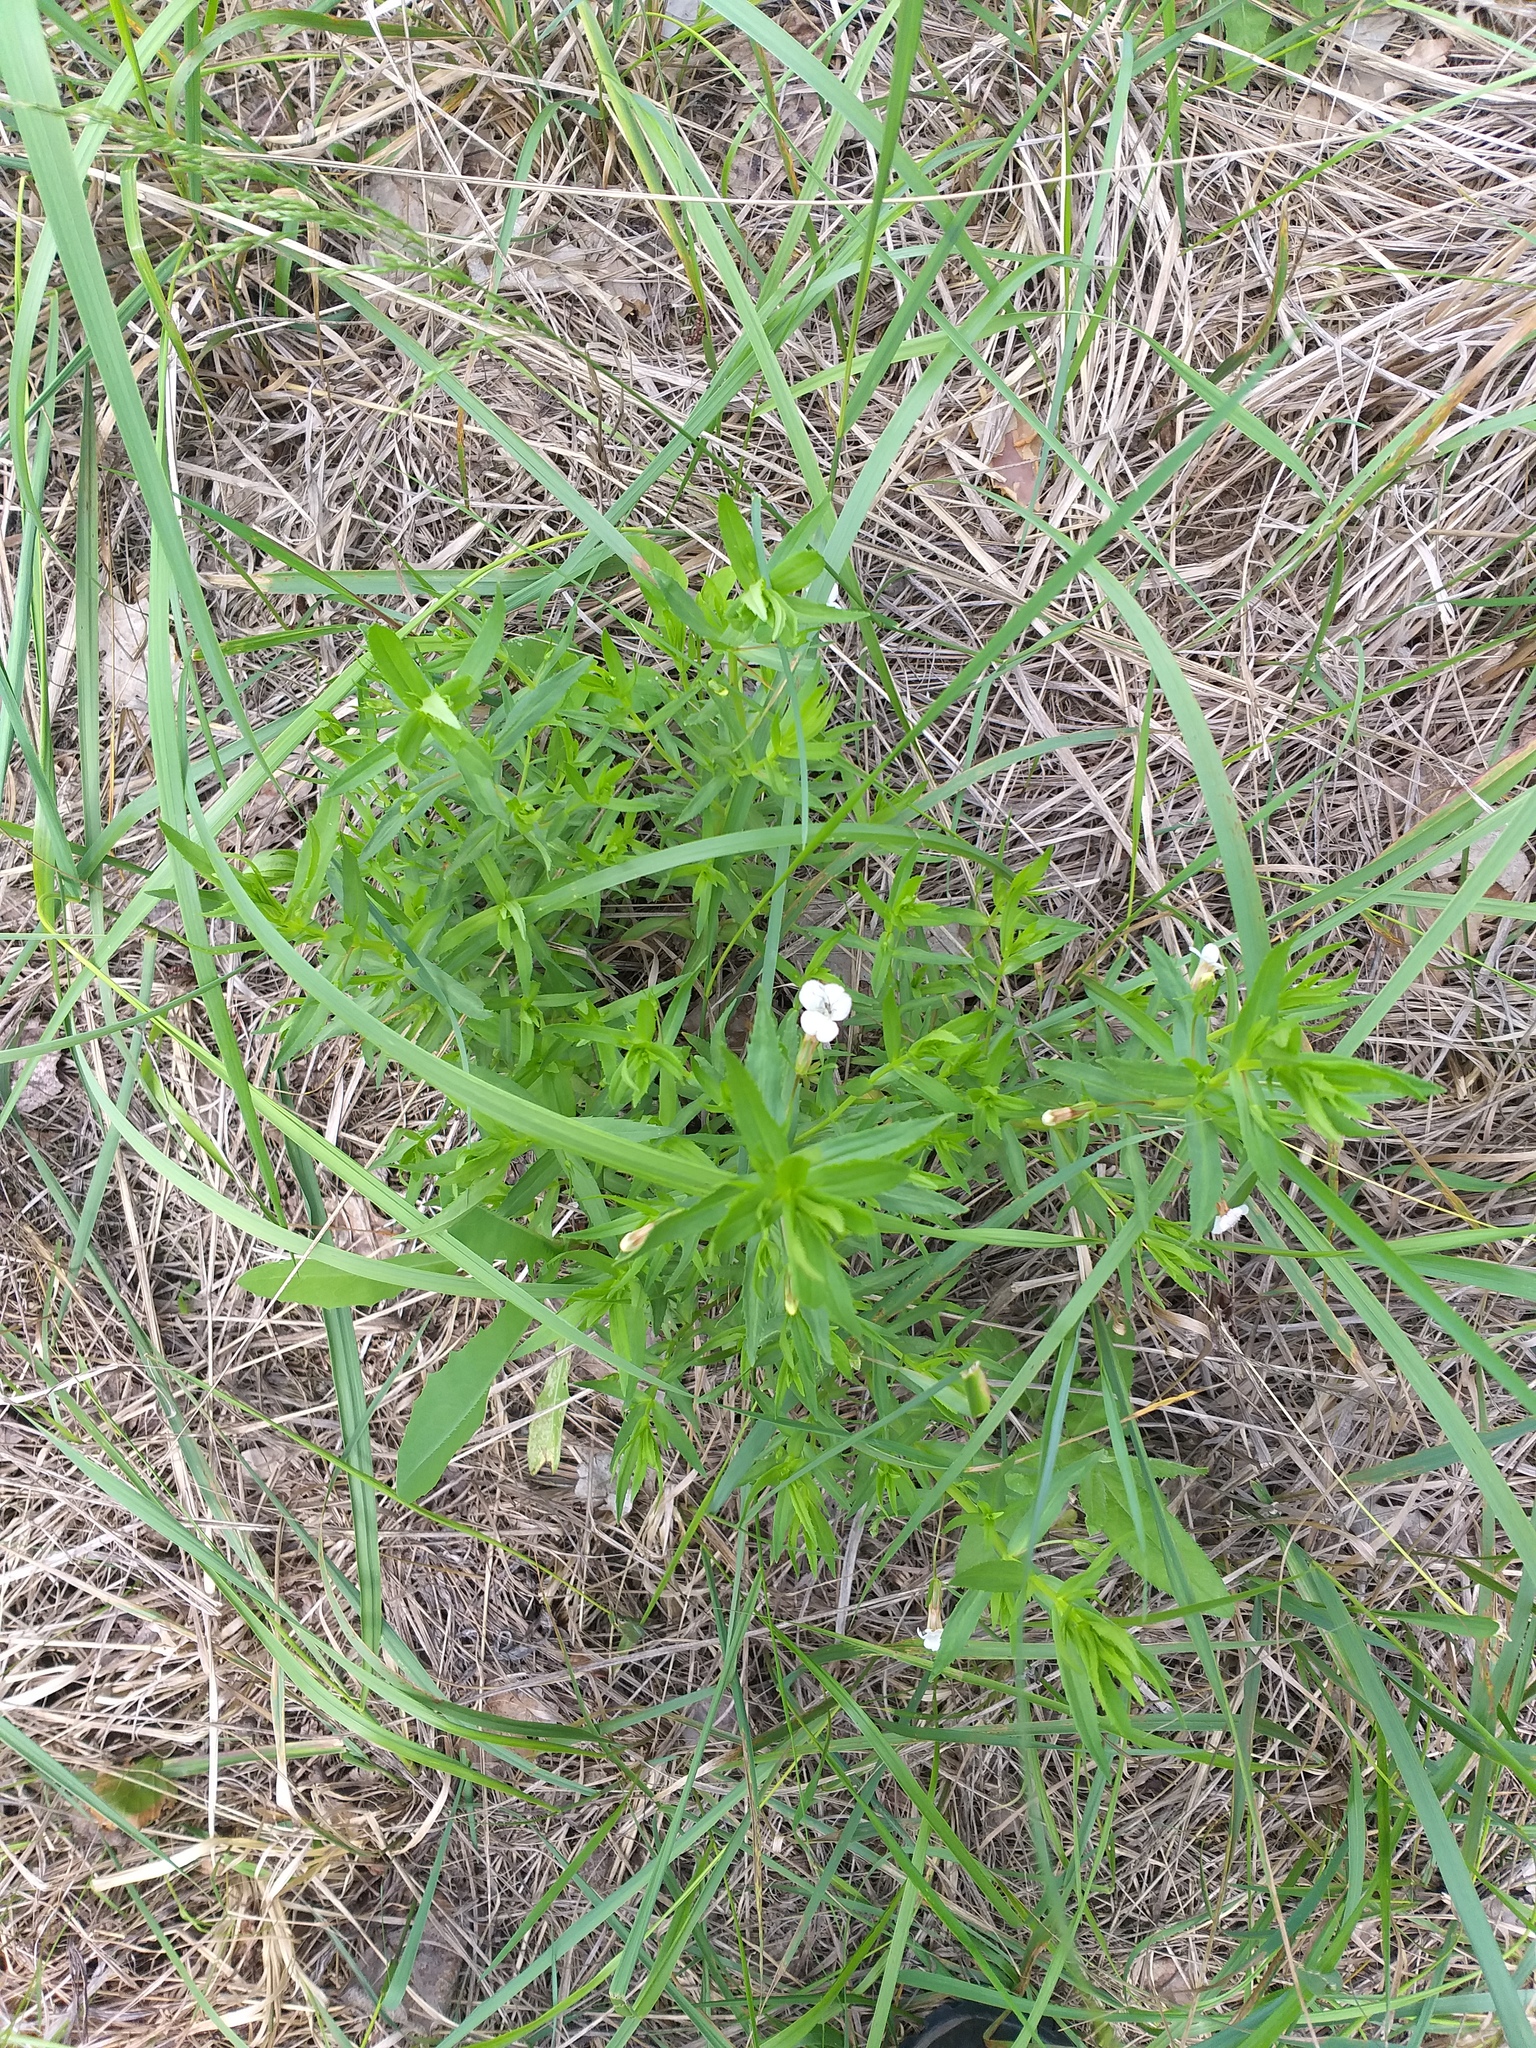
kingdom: Plantae
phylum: Tracheophyta
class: Magnoliopsida
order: Lamiales
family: Plantaginaceae
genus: Gratiola
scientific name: Gratiola officinalis
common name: Gratiola
